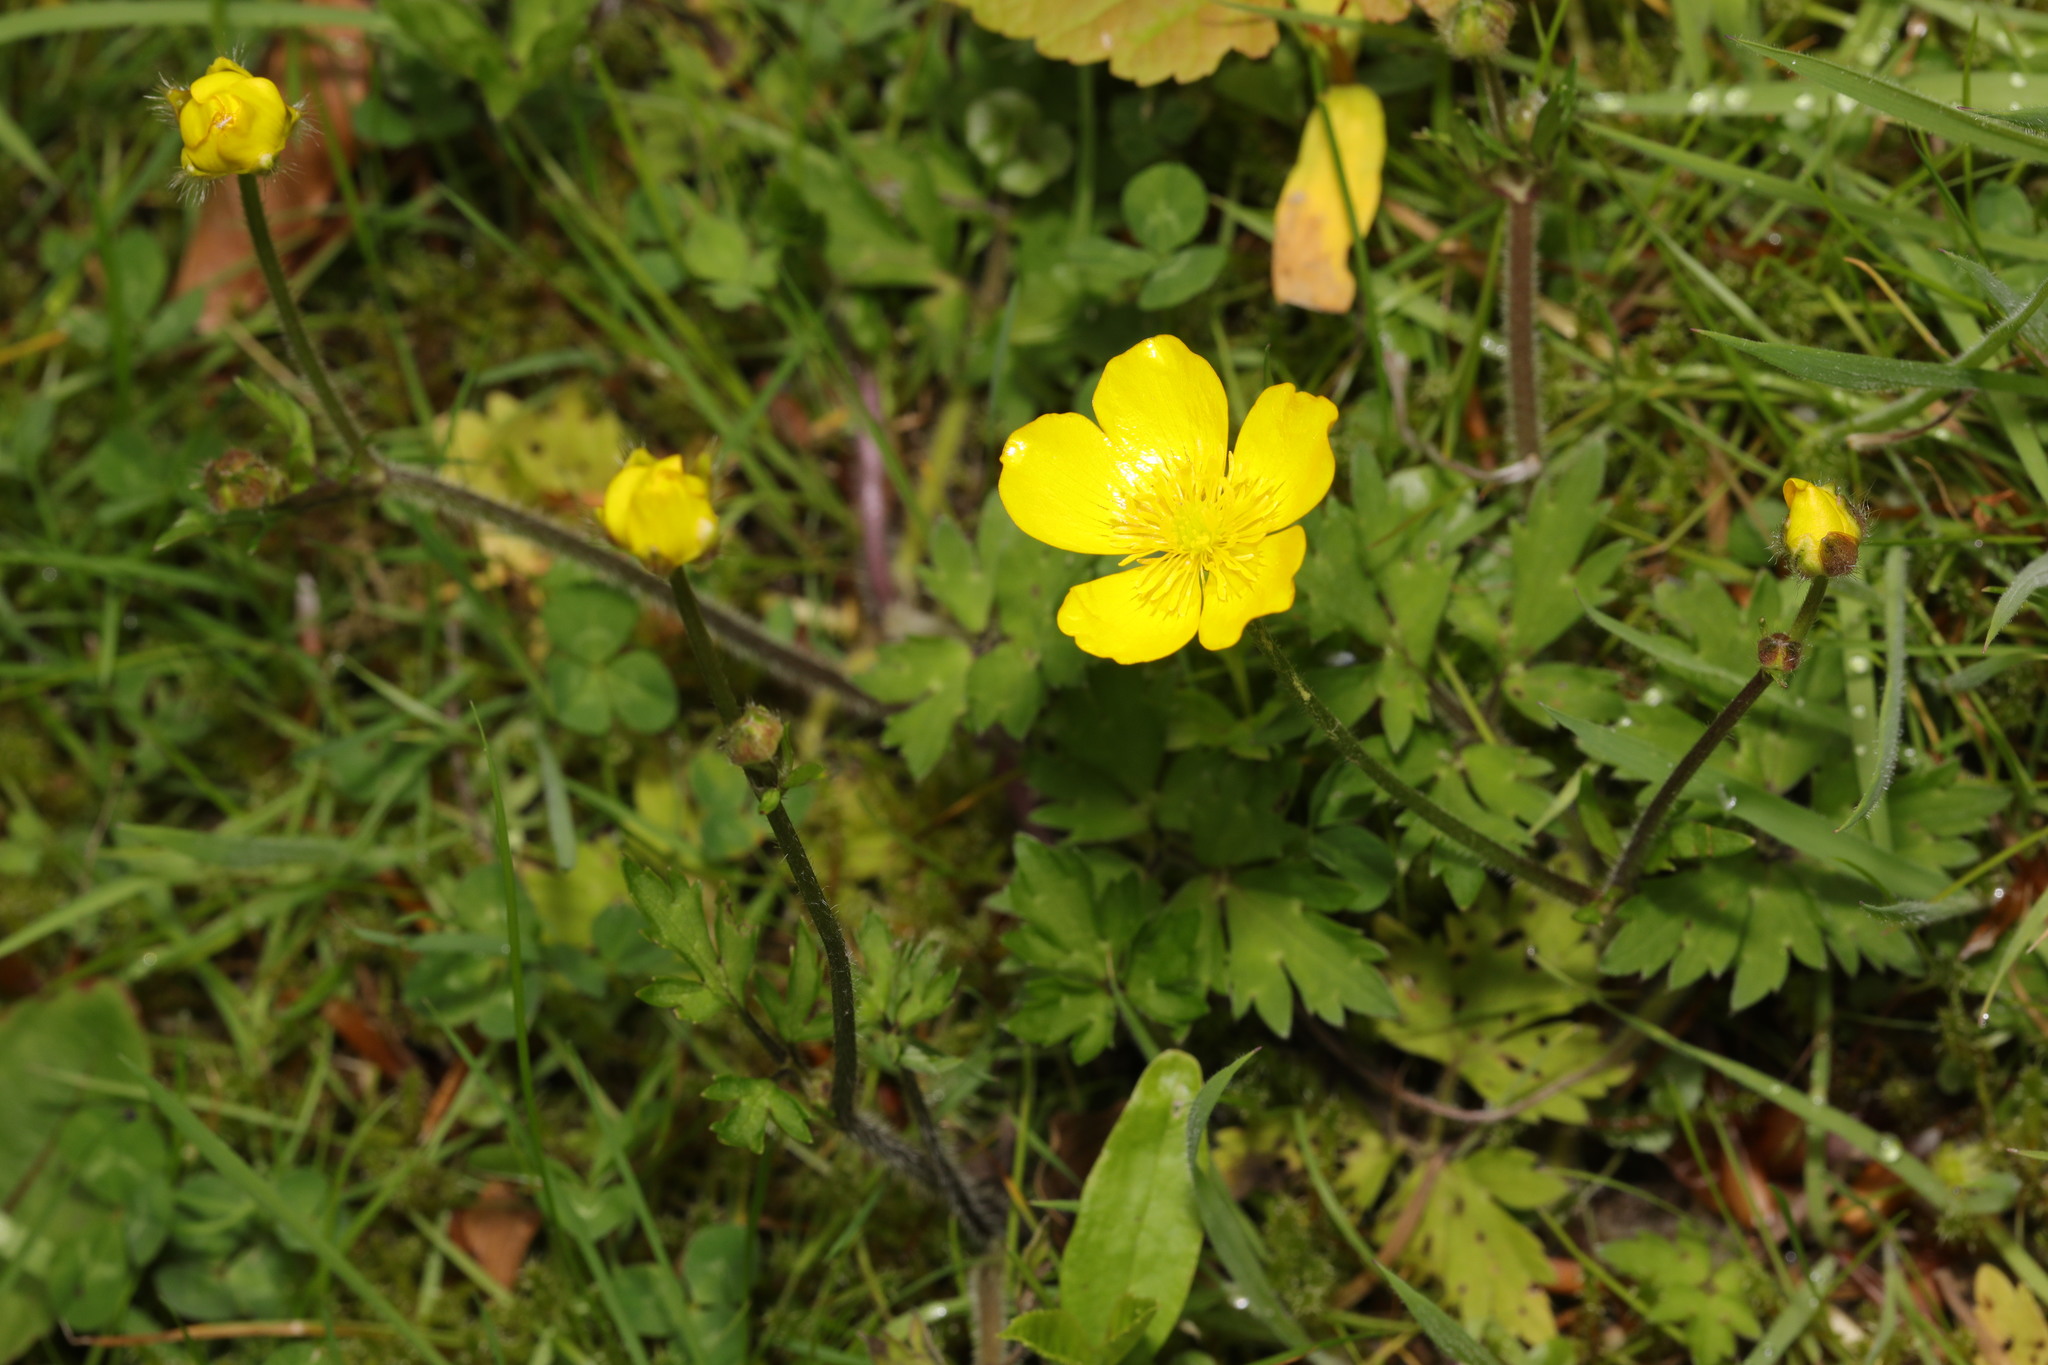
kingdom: Plantae
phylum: Tracheophyta
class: Magnoliopsida
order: Ranunculales
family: Ranunculaceae
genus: Ranunculus
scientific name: Ranunculus repens
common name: Creeping buttercup
